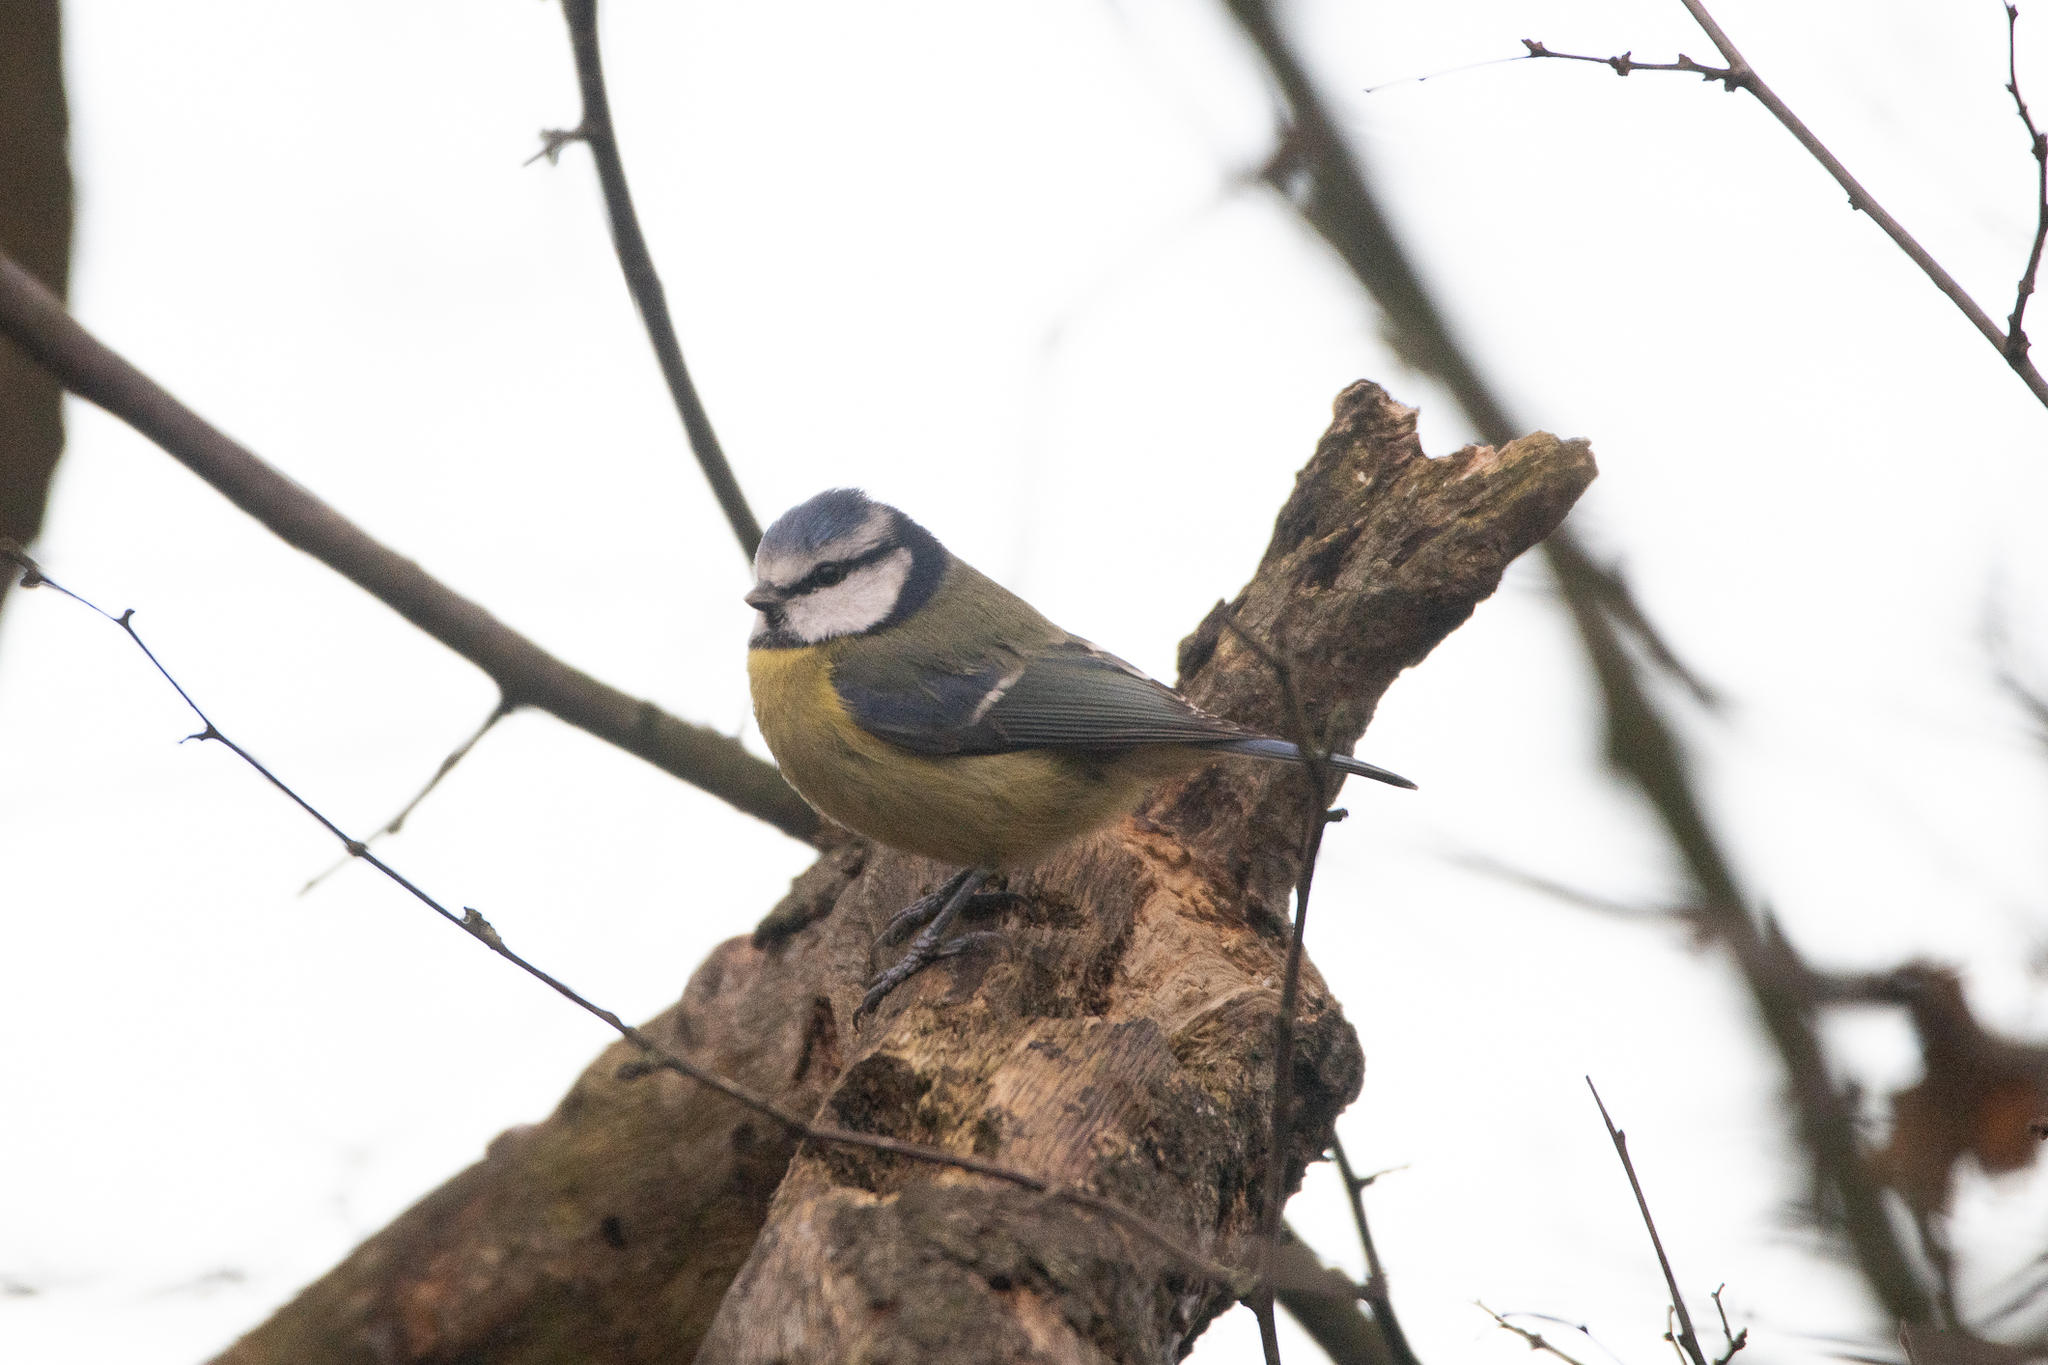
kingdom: Animalia
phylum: Chordata
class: Aves
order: Passeriformes
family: Paridae
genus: Cyanistes
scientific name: Cyanistes caeruleus
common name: Eurasian blue tit
